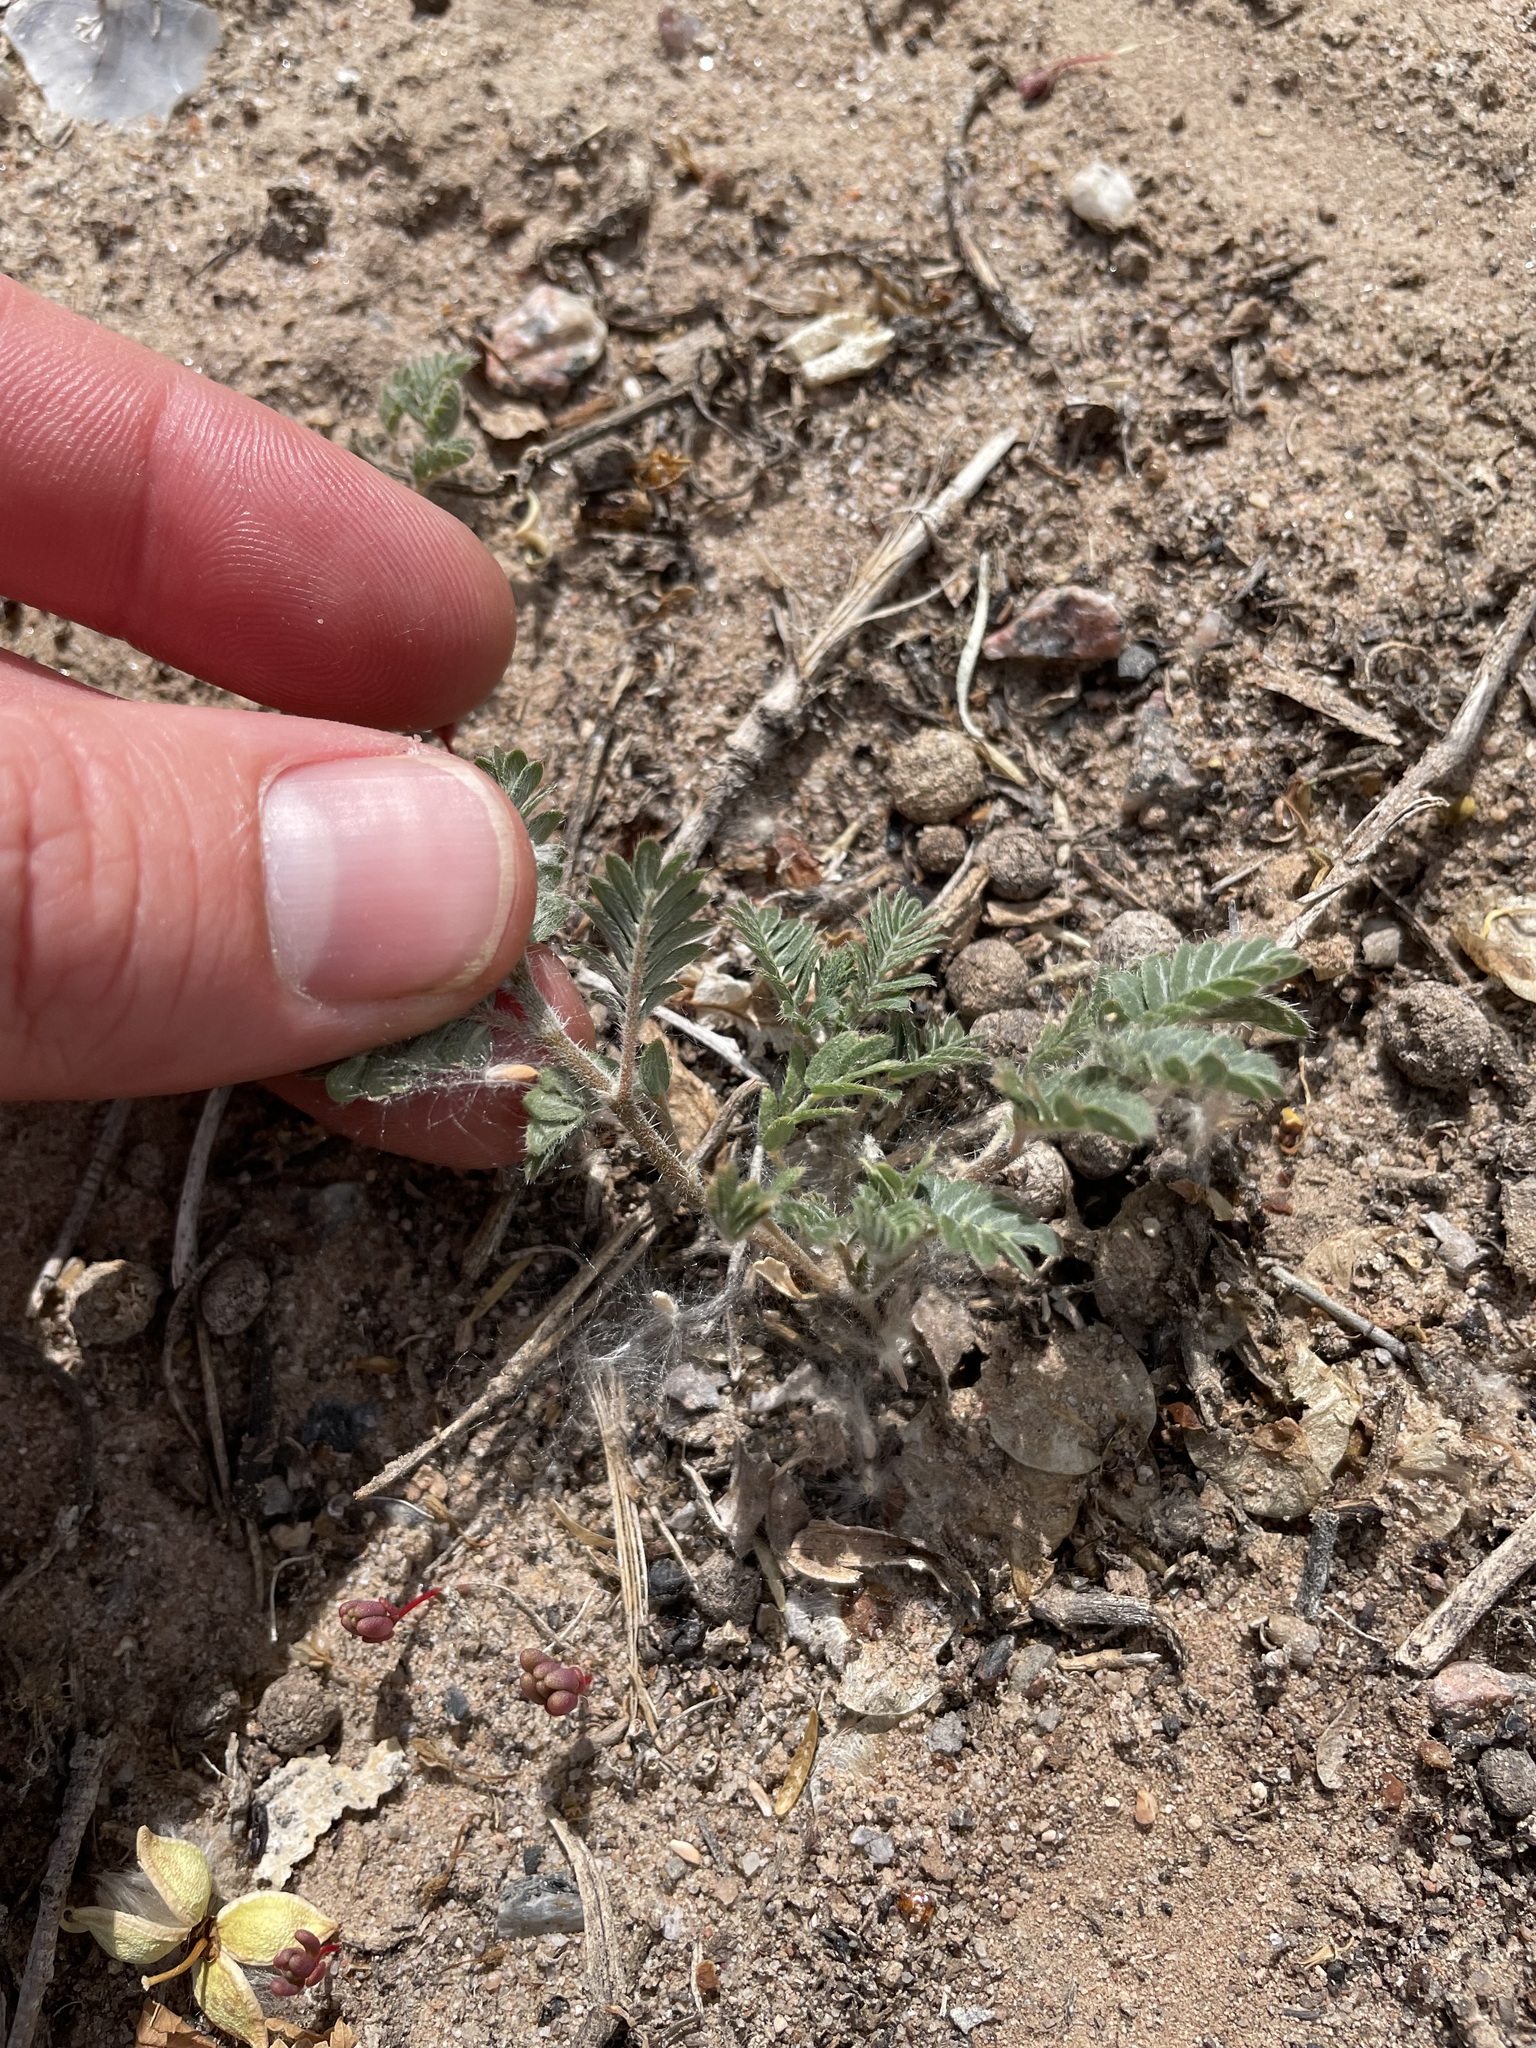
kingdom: Plantae
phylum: Tracheophyta
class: Magnoliopsida
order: Zygophyllales
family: Zygophyllaceae
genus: Tribulus
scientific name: Tribulus terrestris
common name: Puncturevine
